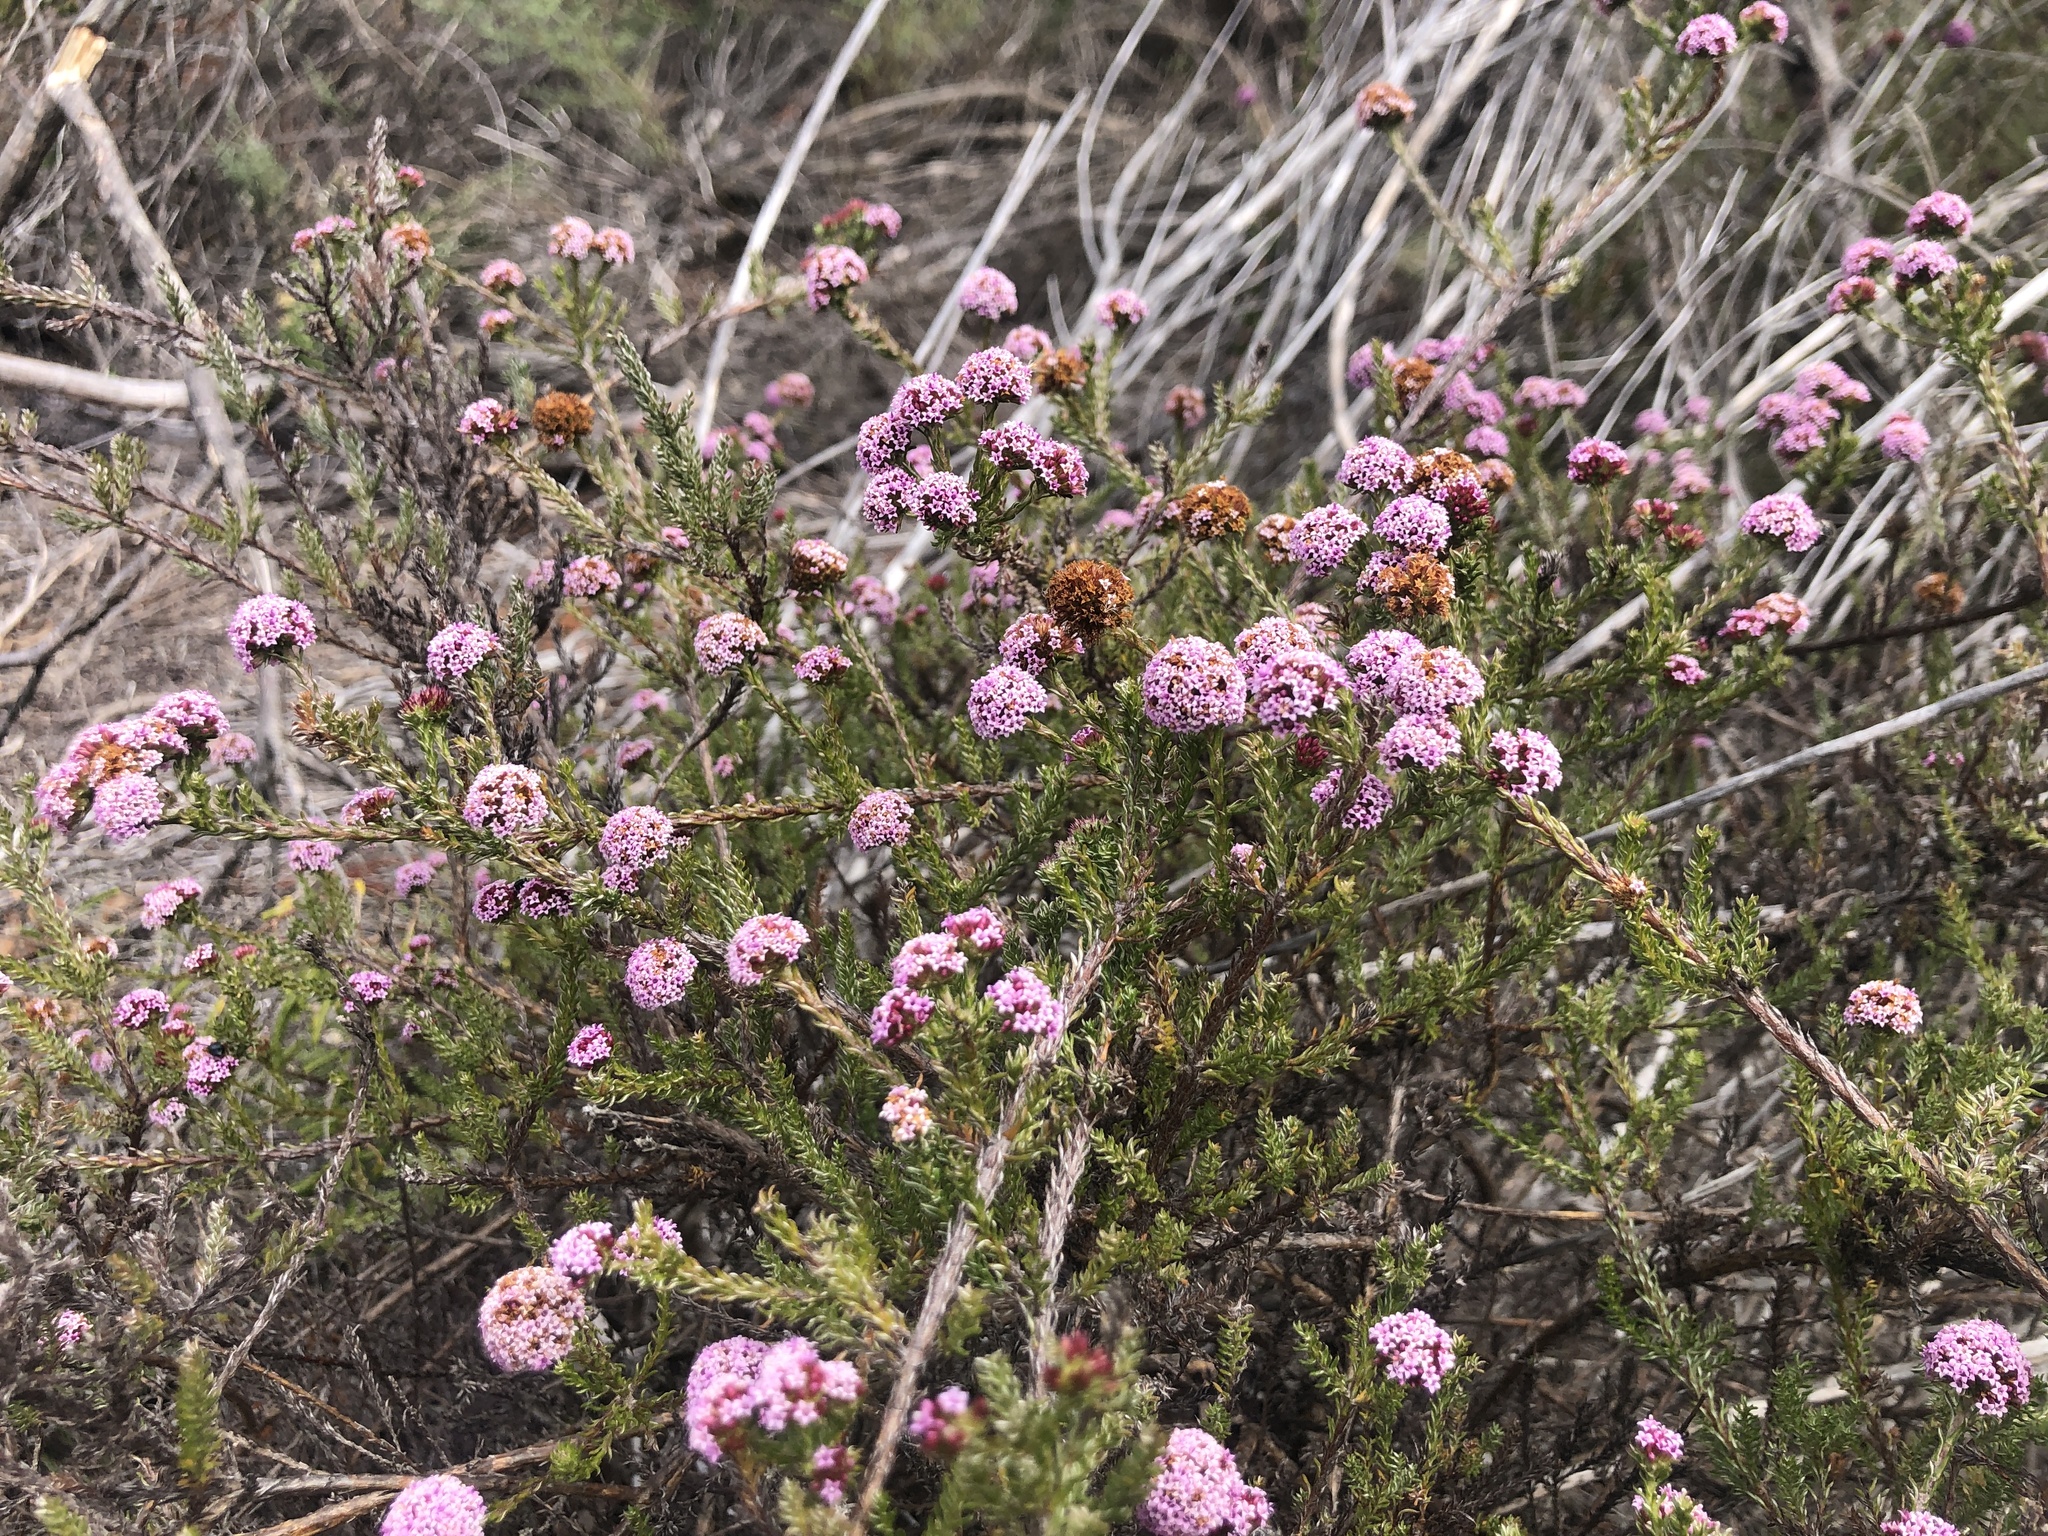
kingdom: Plantae
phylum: Tracheophyta
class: Magnoliopsida
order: Asterales
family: Asteraceae
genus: Stoebe
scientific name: Stoebe capitata
